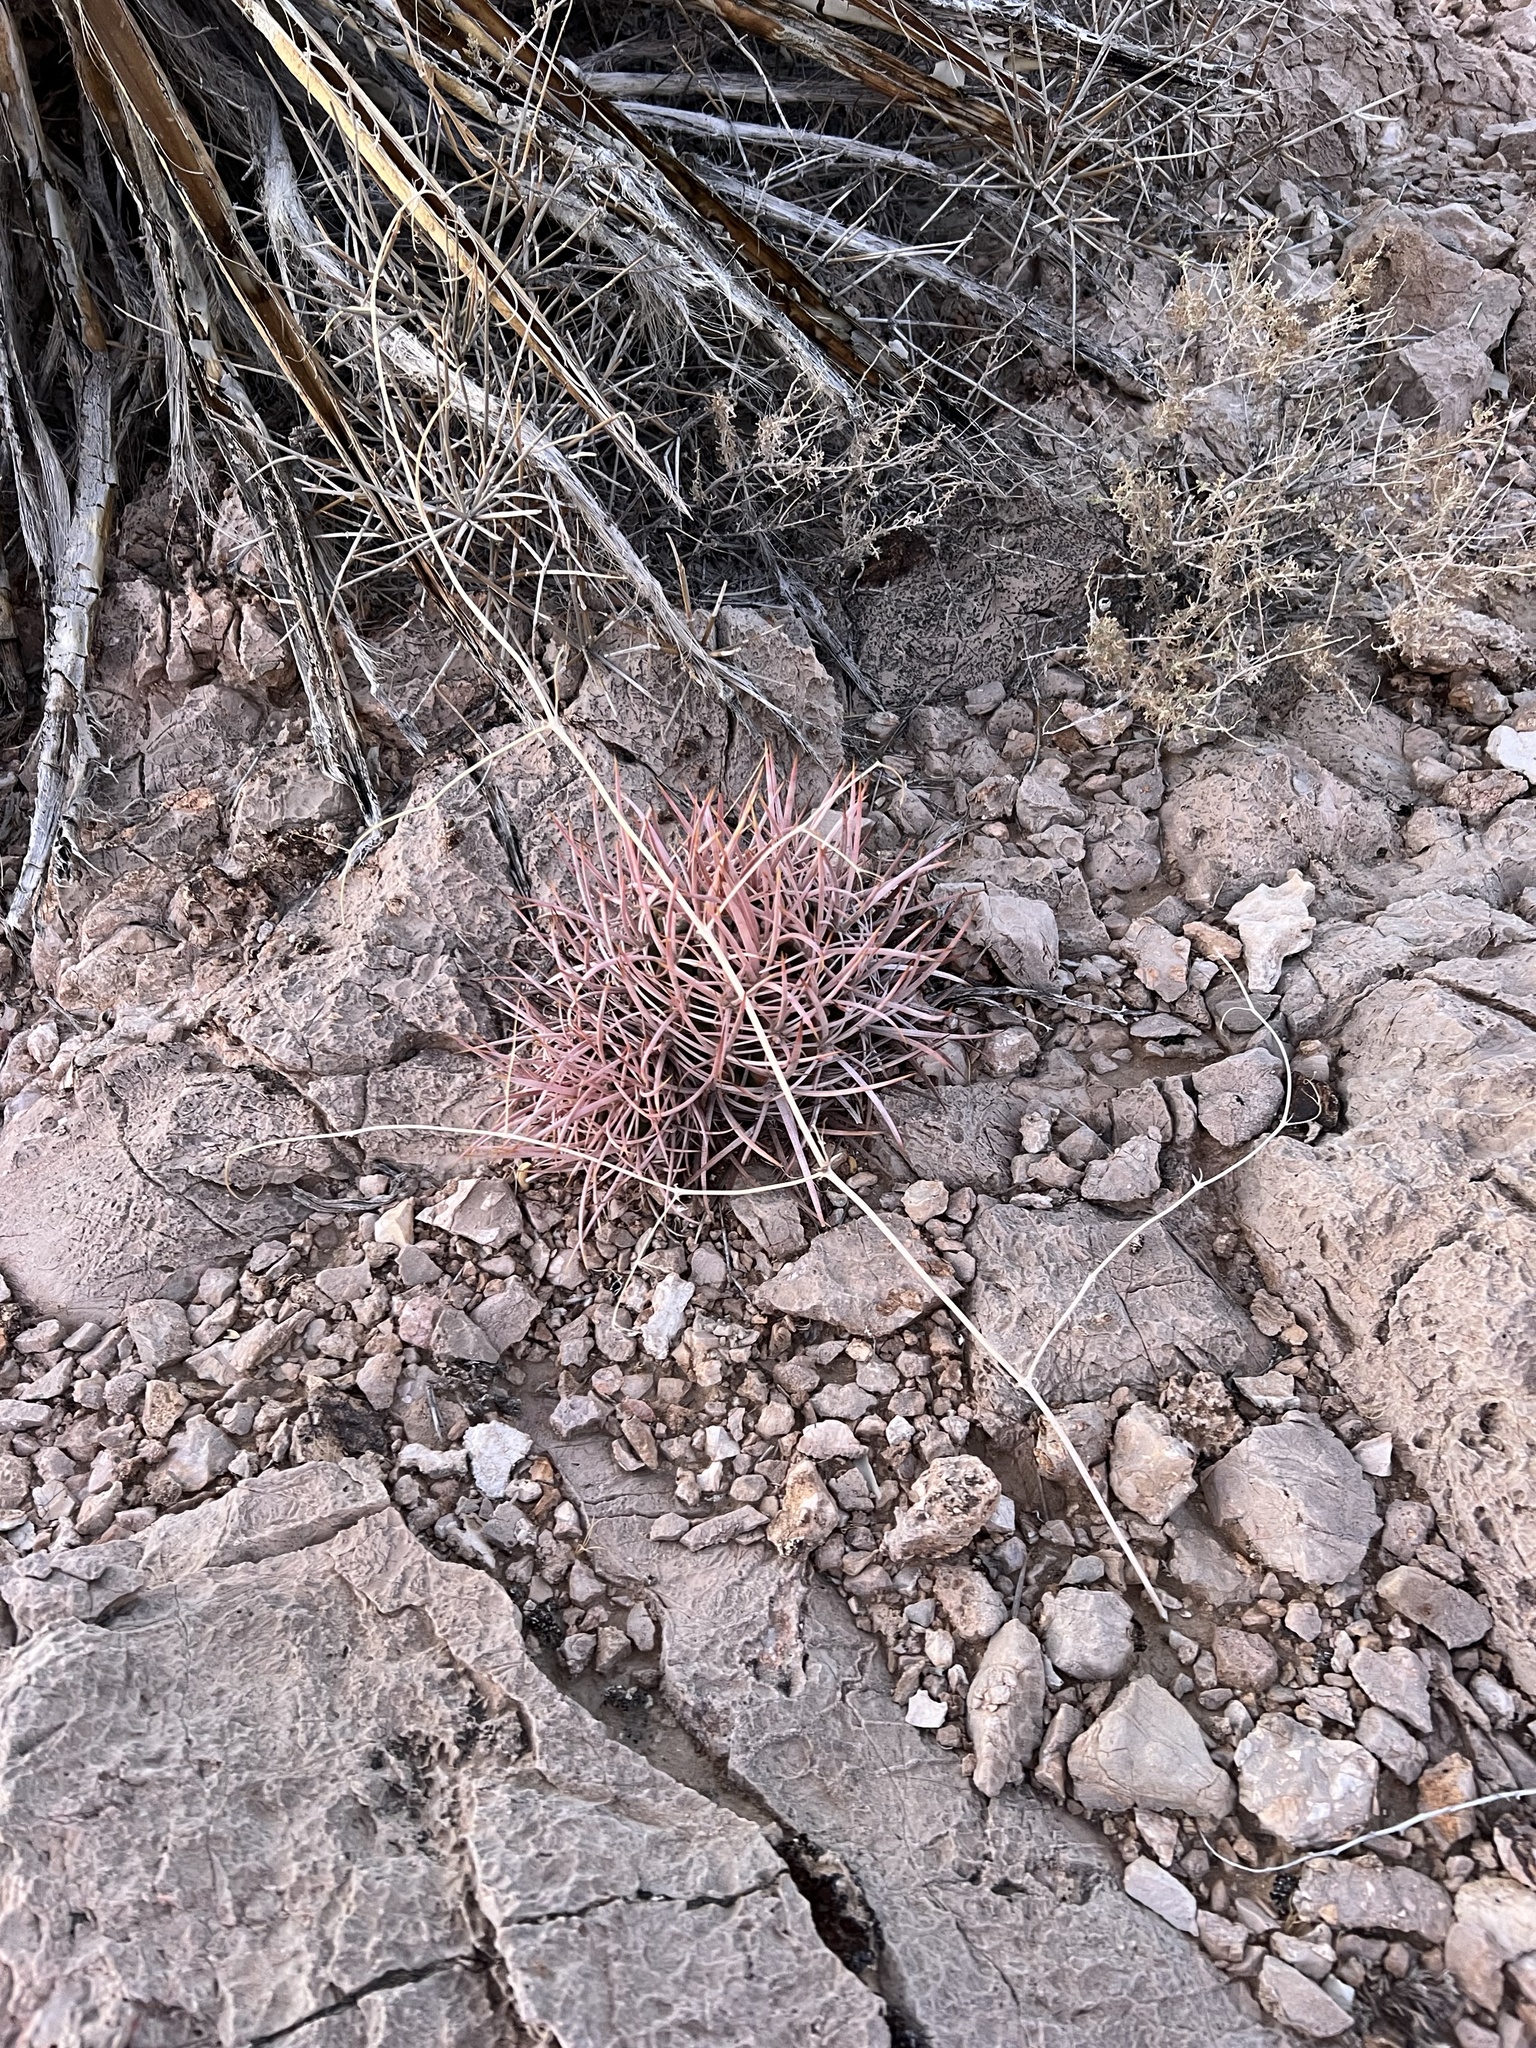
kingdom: Plantae
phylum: Tracheophyta
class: Magnoliopsida
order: Caryophyllales
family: Cactaceae
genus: Echinocactus
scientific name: Echinocactus polycephalus
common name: Cottontop cactus
